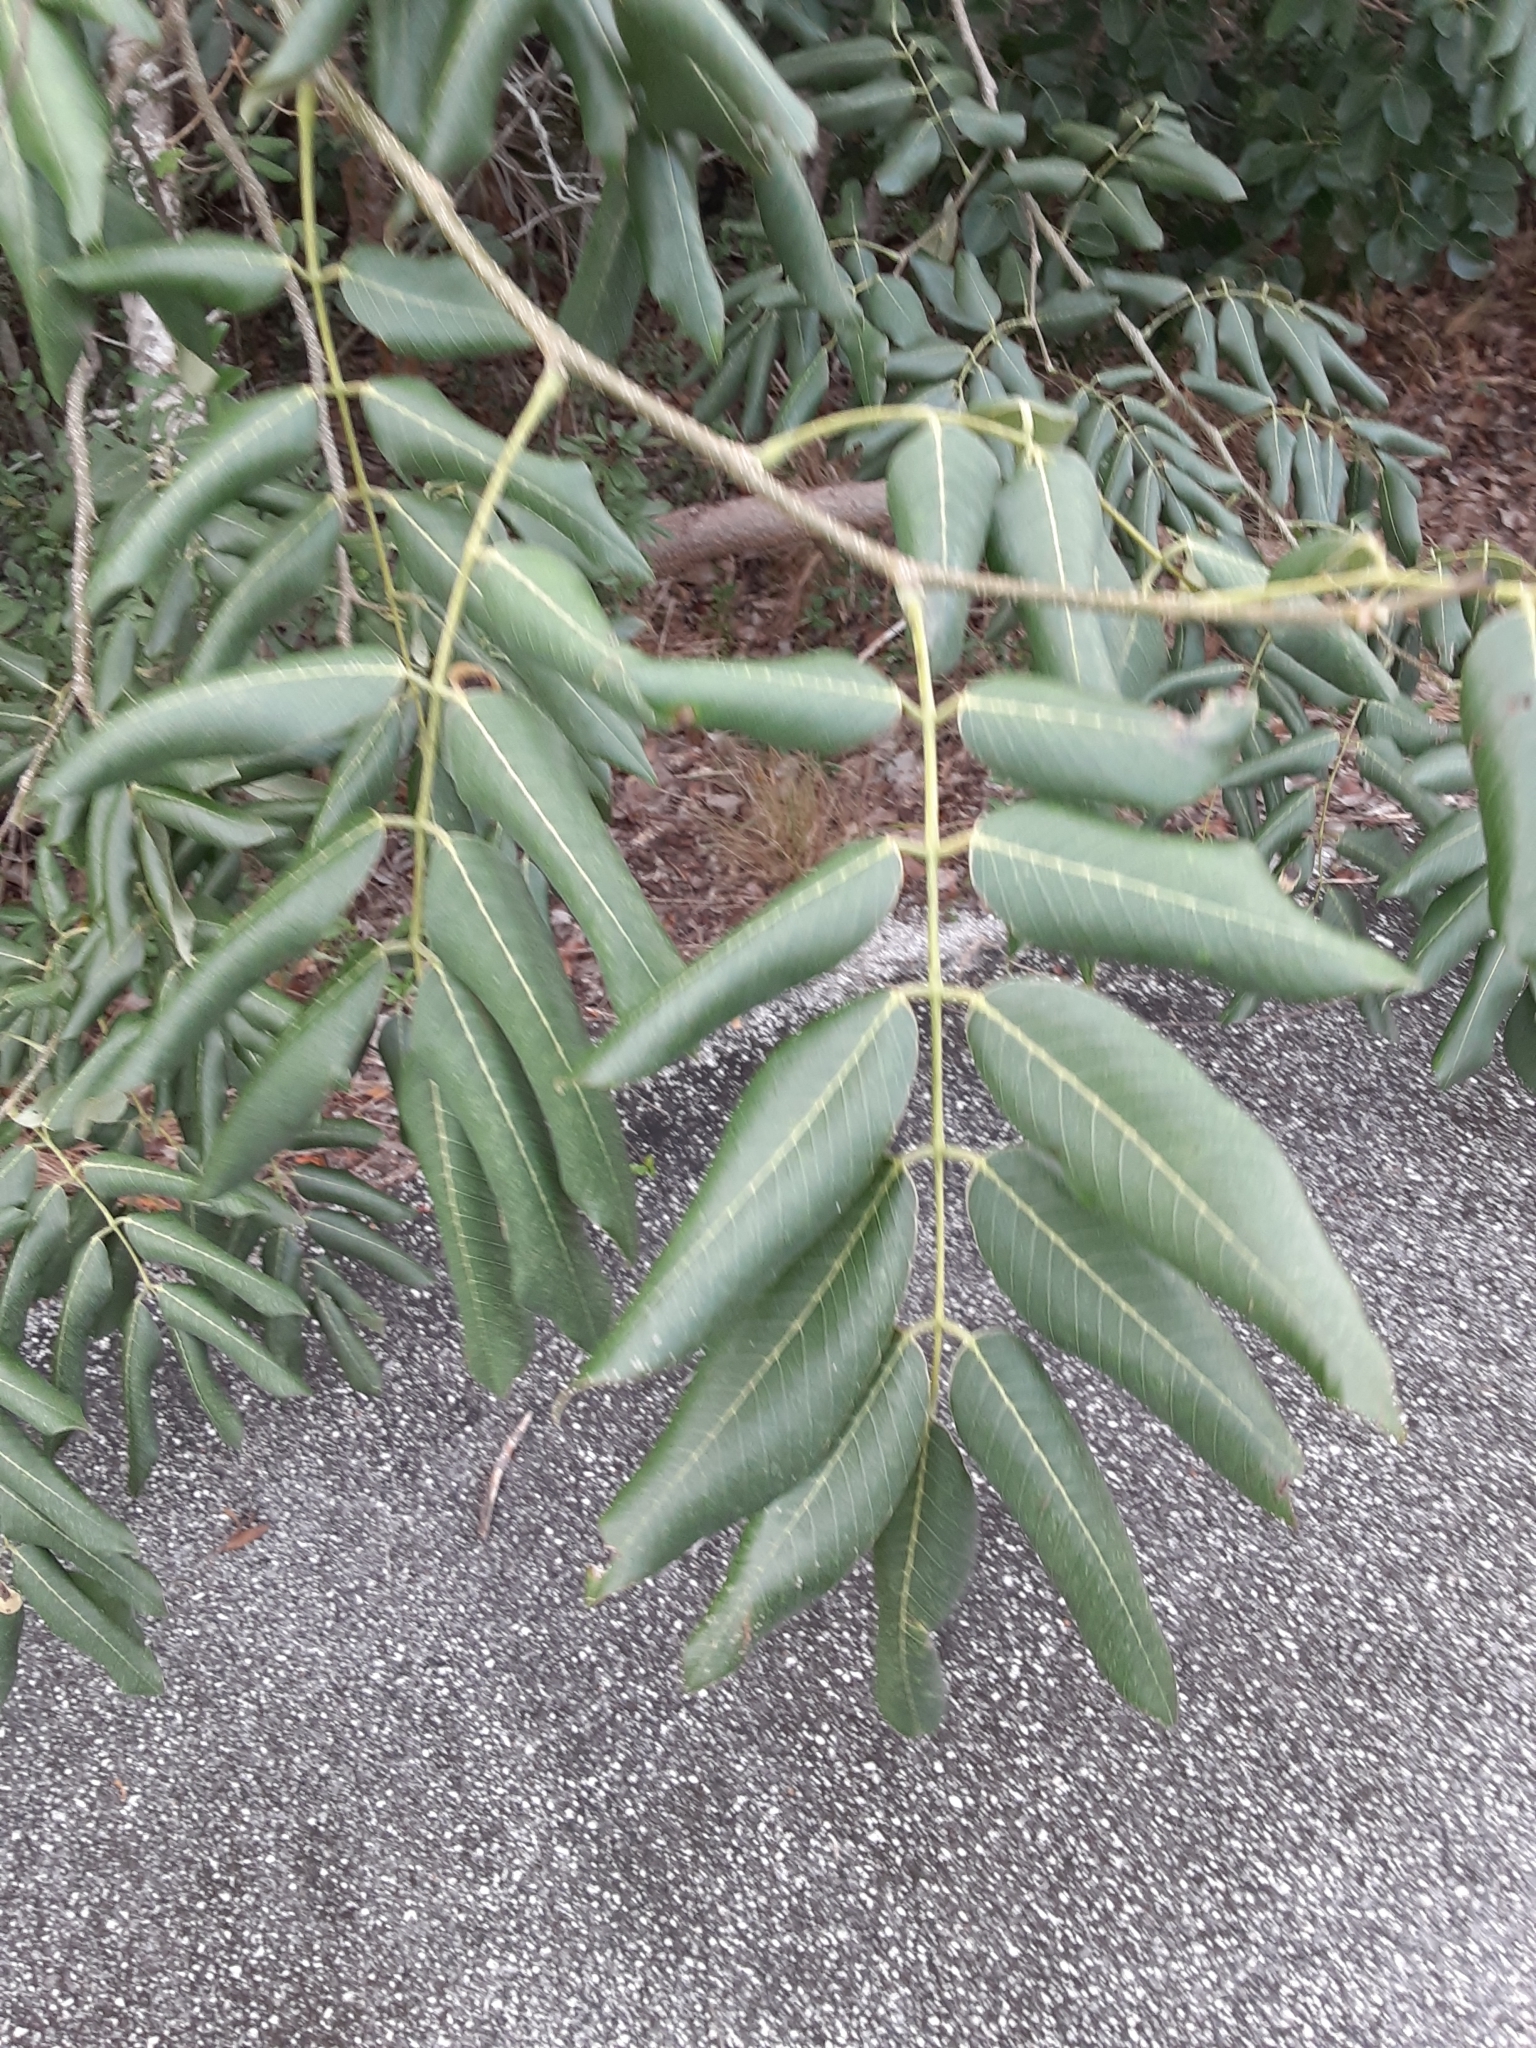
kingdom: Plantae
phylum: Tracheophyta
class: Magnoliopsida
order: Fabales
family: Fabaceae
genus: Piscidia
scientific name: Piscidia piscipula
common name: Florida fishpoison tree
